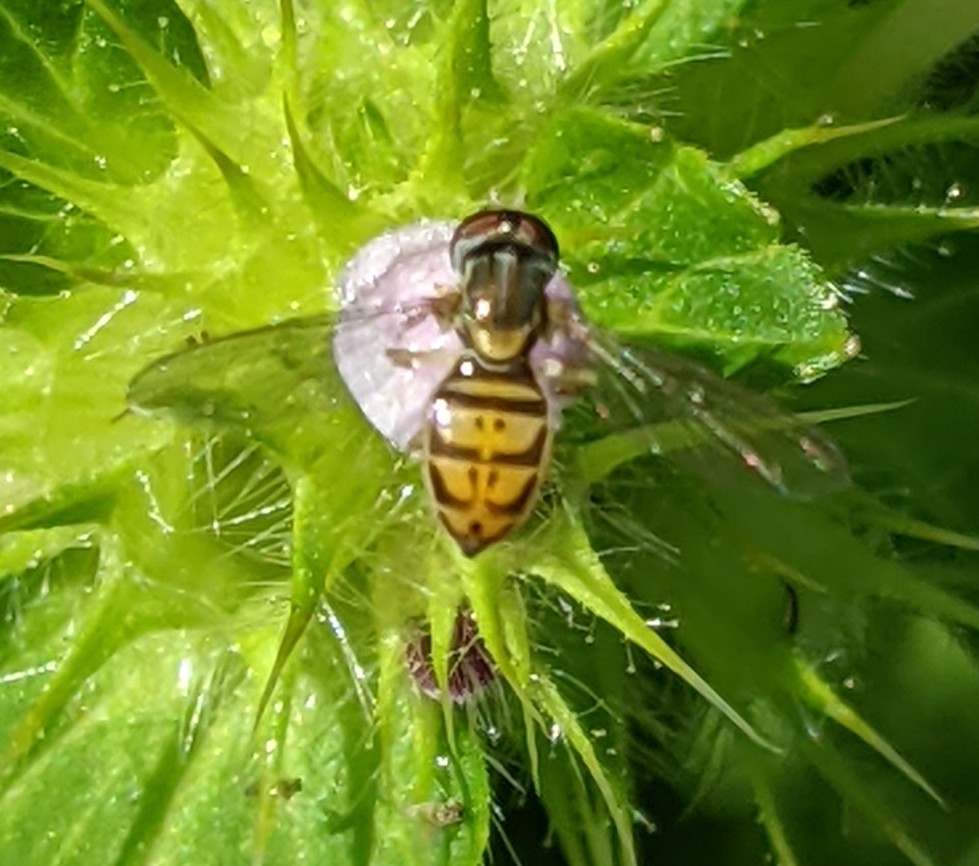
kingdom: Animalia
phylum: Arthropoda
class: Insecta
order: Diptera
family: Syrphidae
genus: Toxomerus
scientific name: Toxomerus marginatus
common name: Syrphid fly
